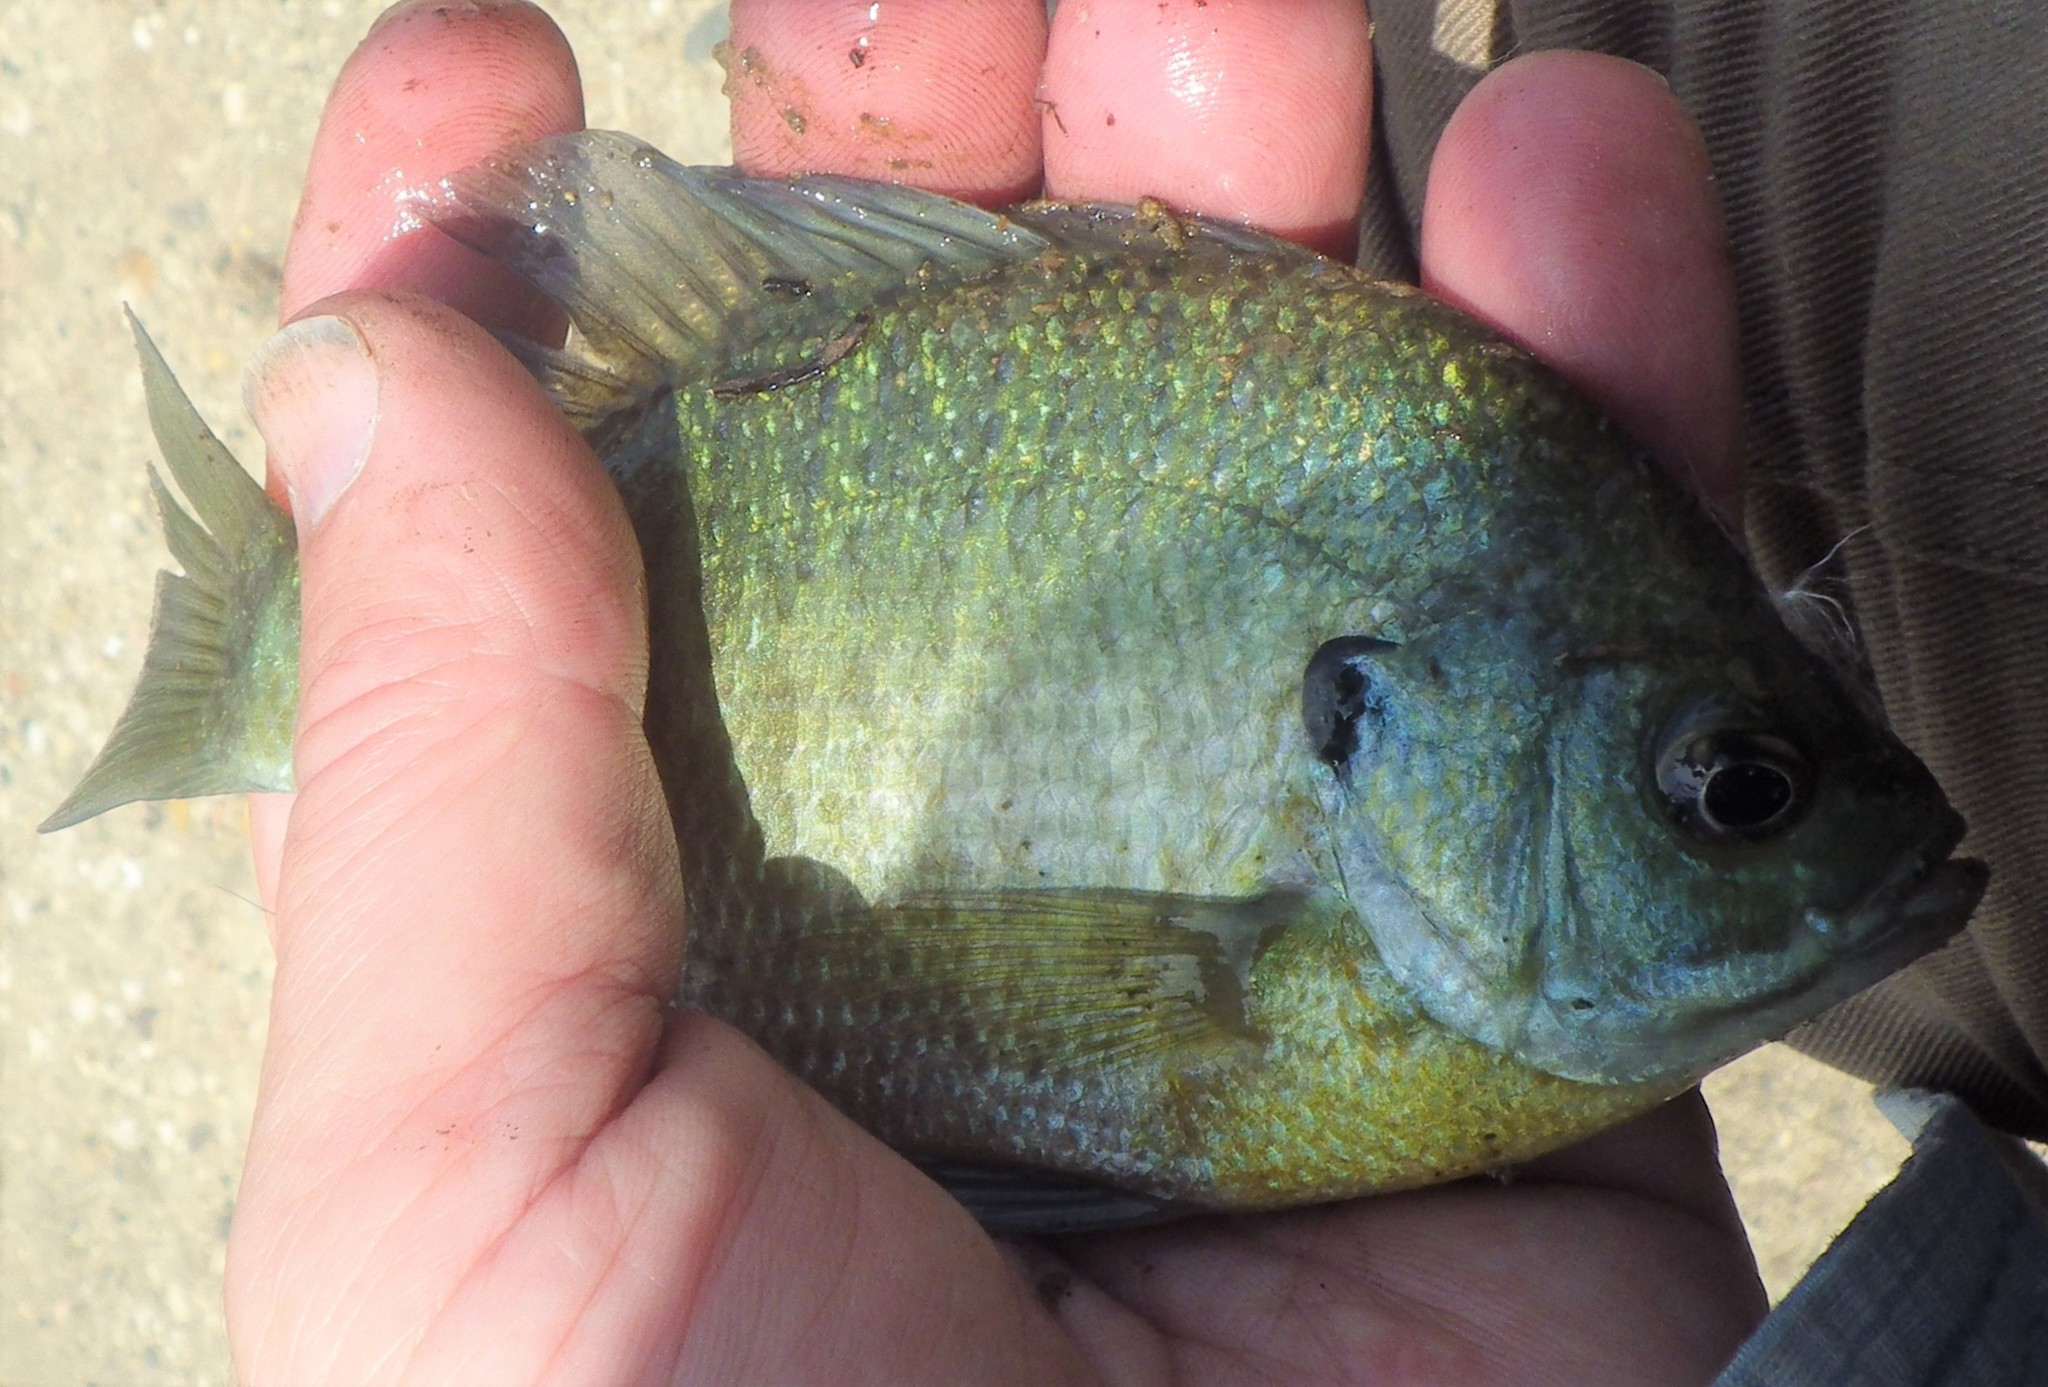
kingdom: Animalia
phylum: Chordata
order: Perciformes
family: Centrarchidae
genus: Lepomis
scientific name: Lepomis macrochirus
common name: Bluegill
